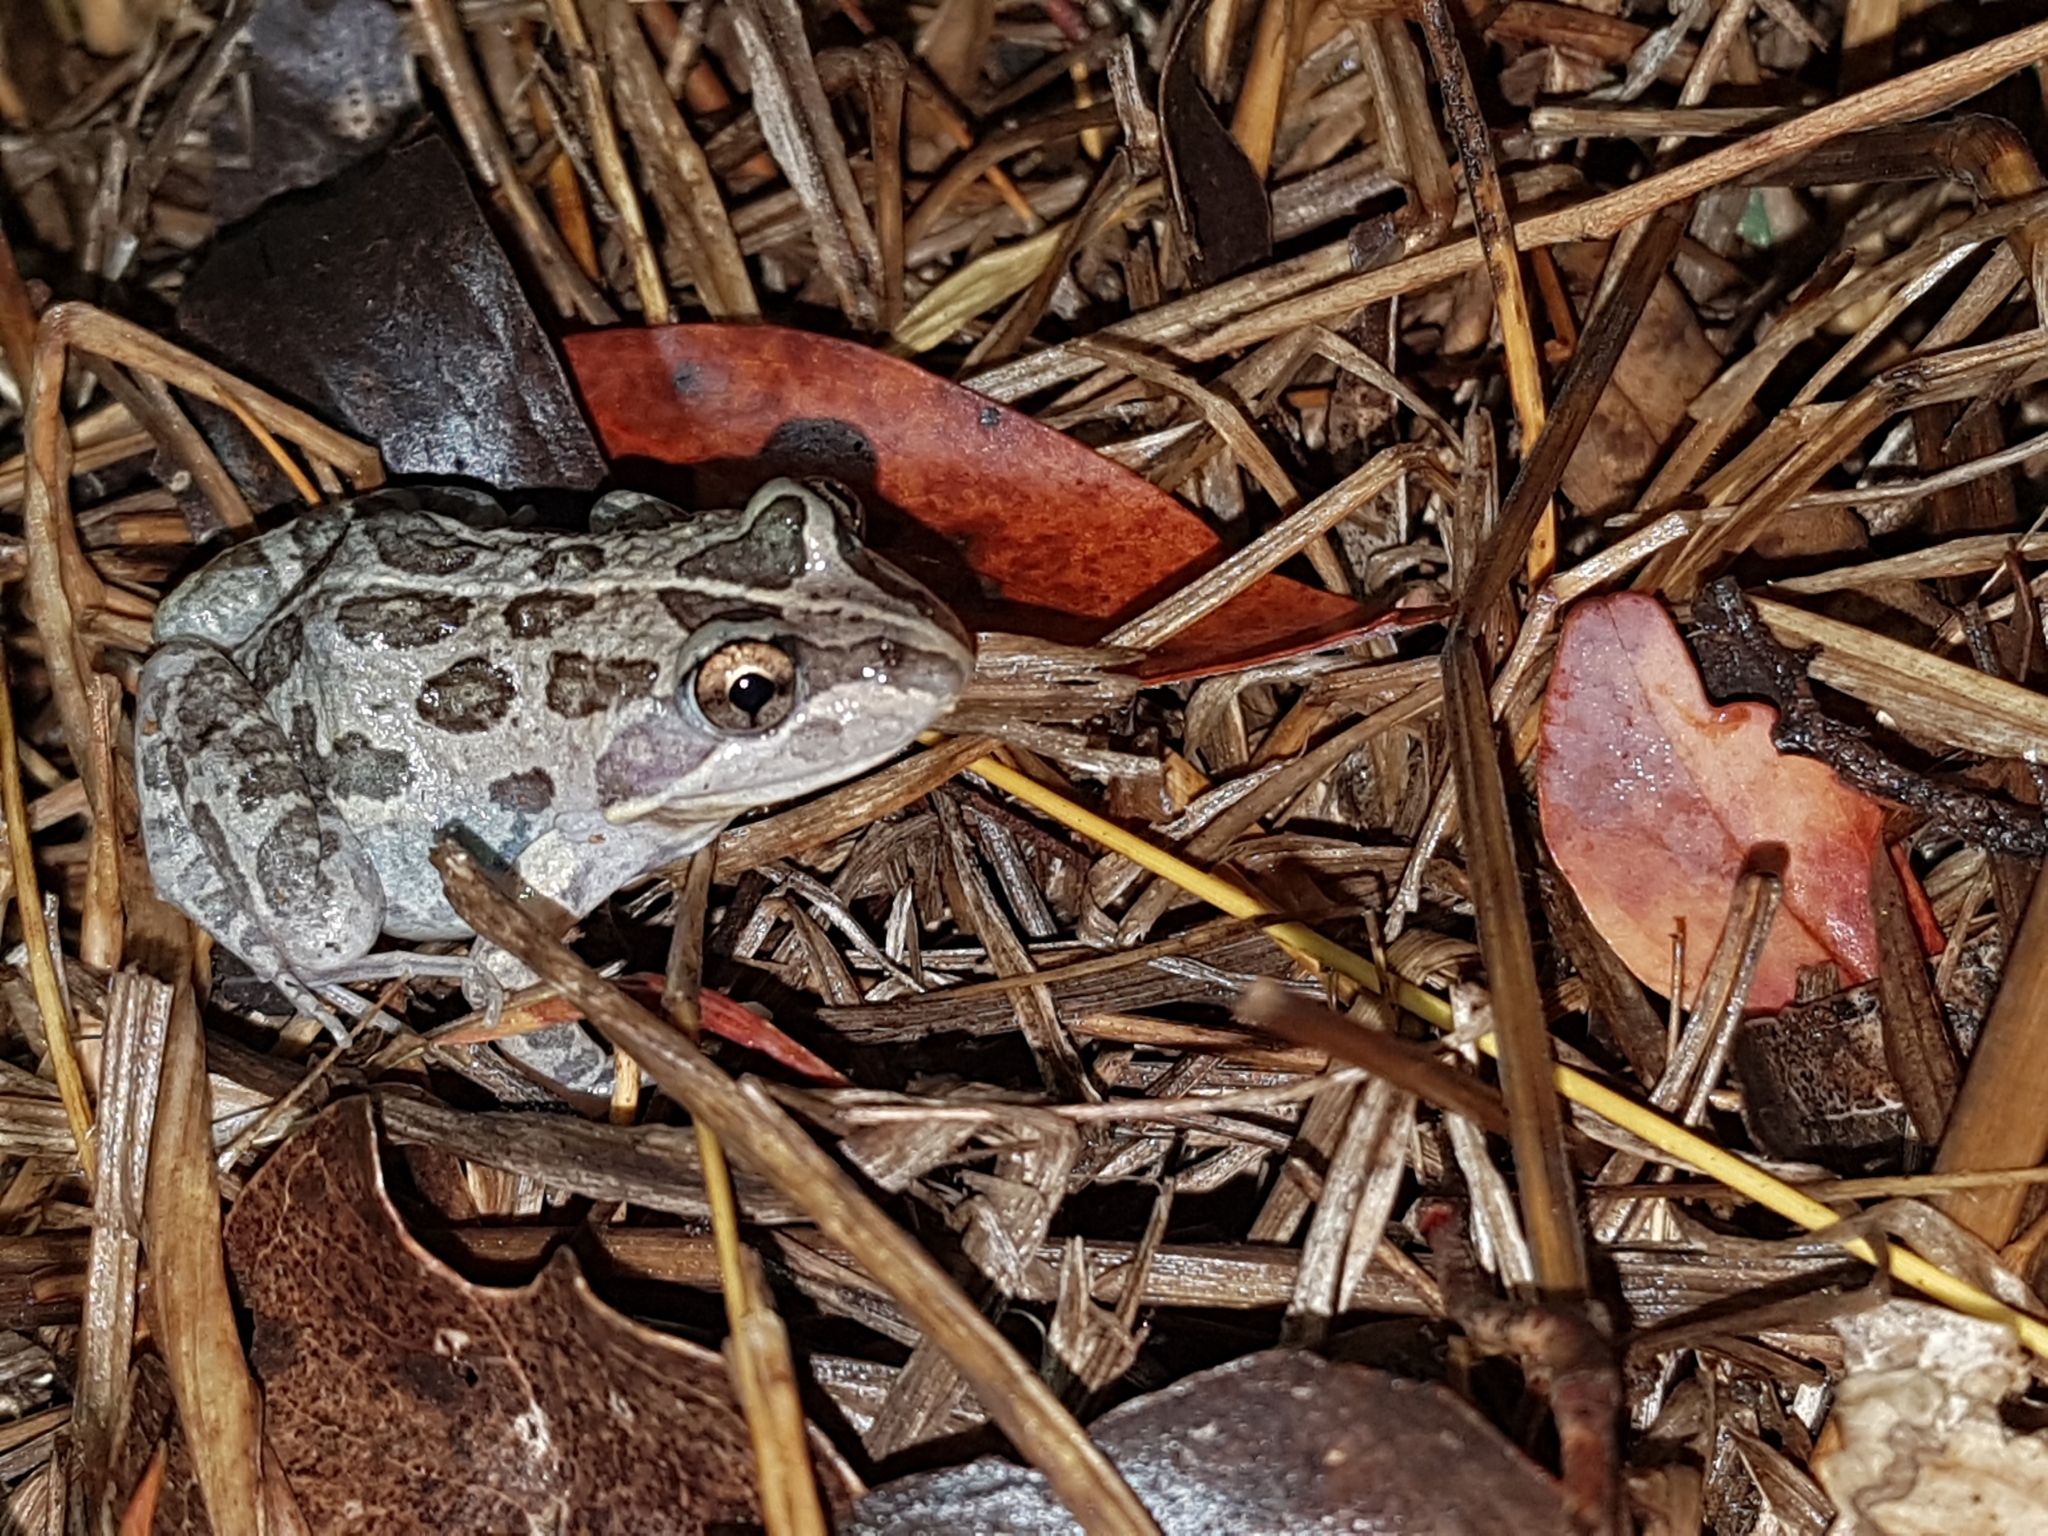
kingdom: Animalia
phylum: Chordata
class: Amphibia
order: Anura
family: Limnodynastidae
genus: Limnodynastes
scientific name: Limnodynastes tasmaniensis
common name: Spotted marsh frog
